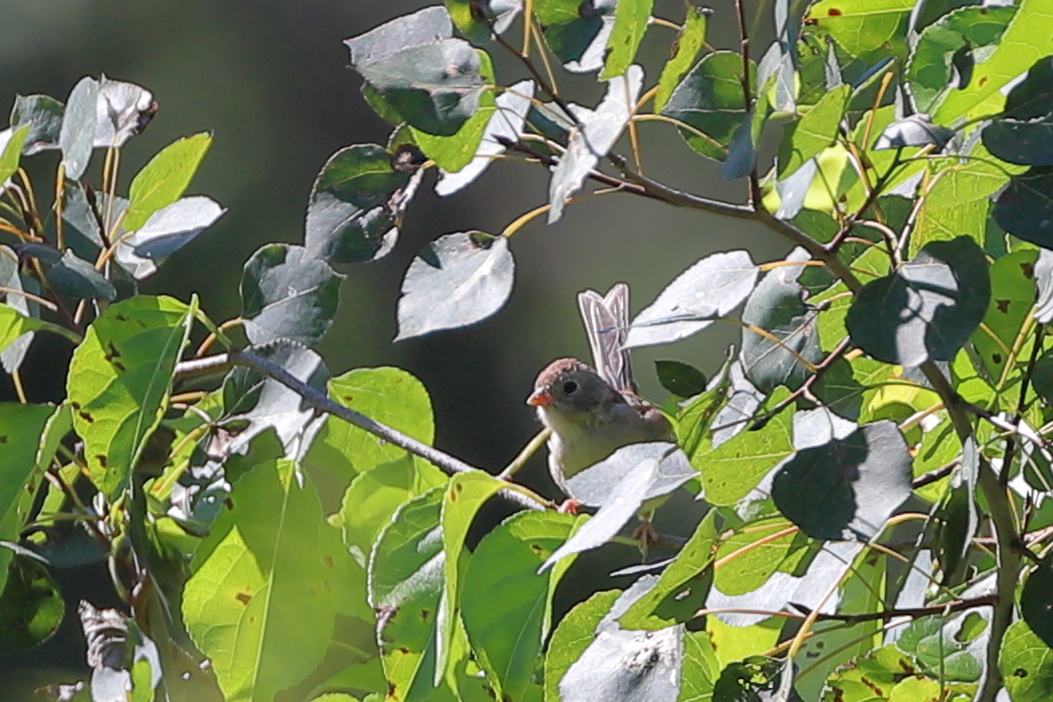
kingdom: Animalia
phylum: Chordata
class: Aves
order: Passeriformes
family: Passerellidae
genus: Spizella
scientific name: Spizella pusilla
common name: Field sparrow
